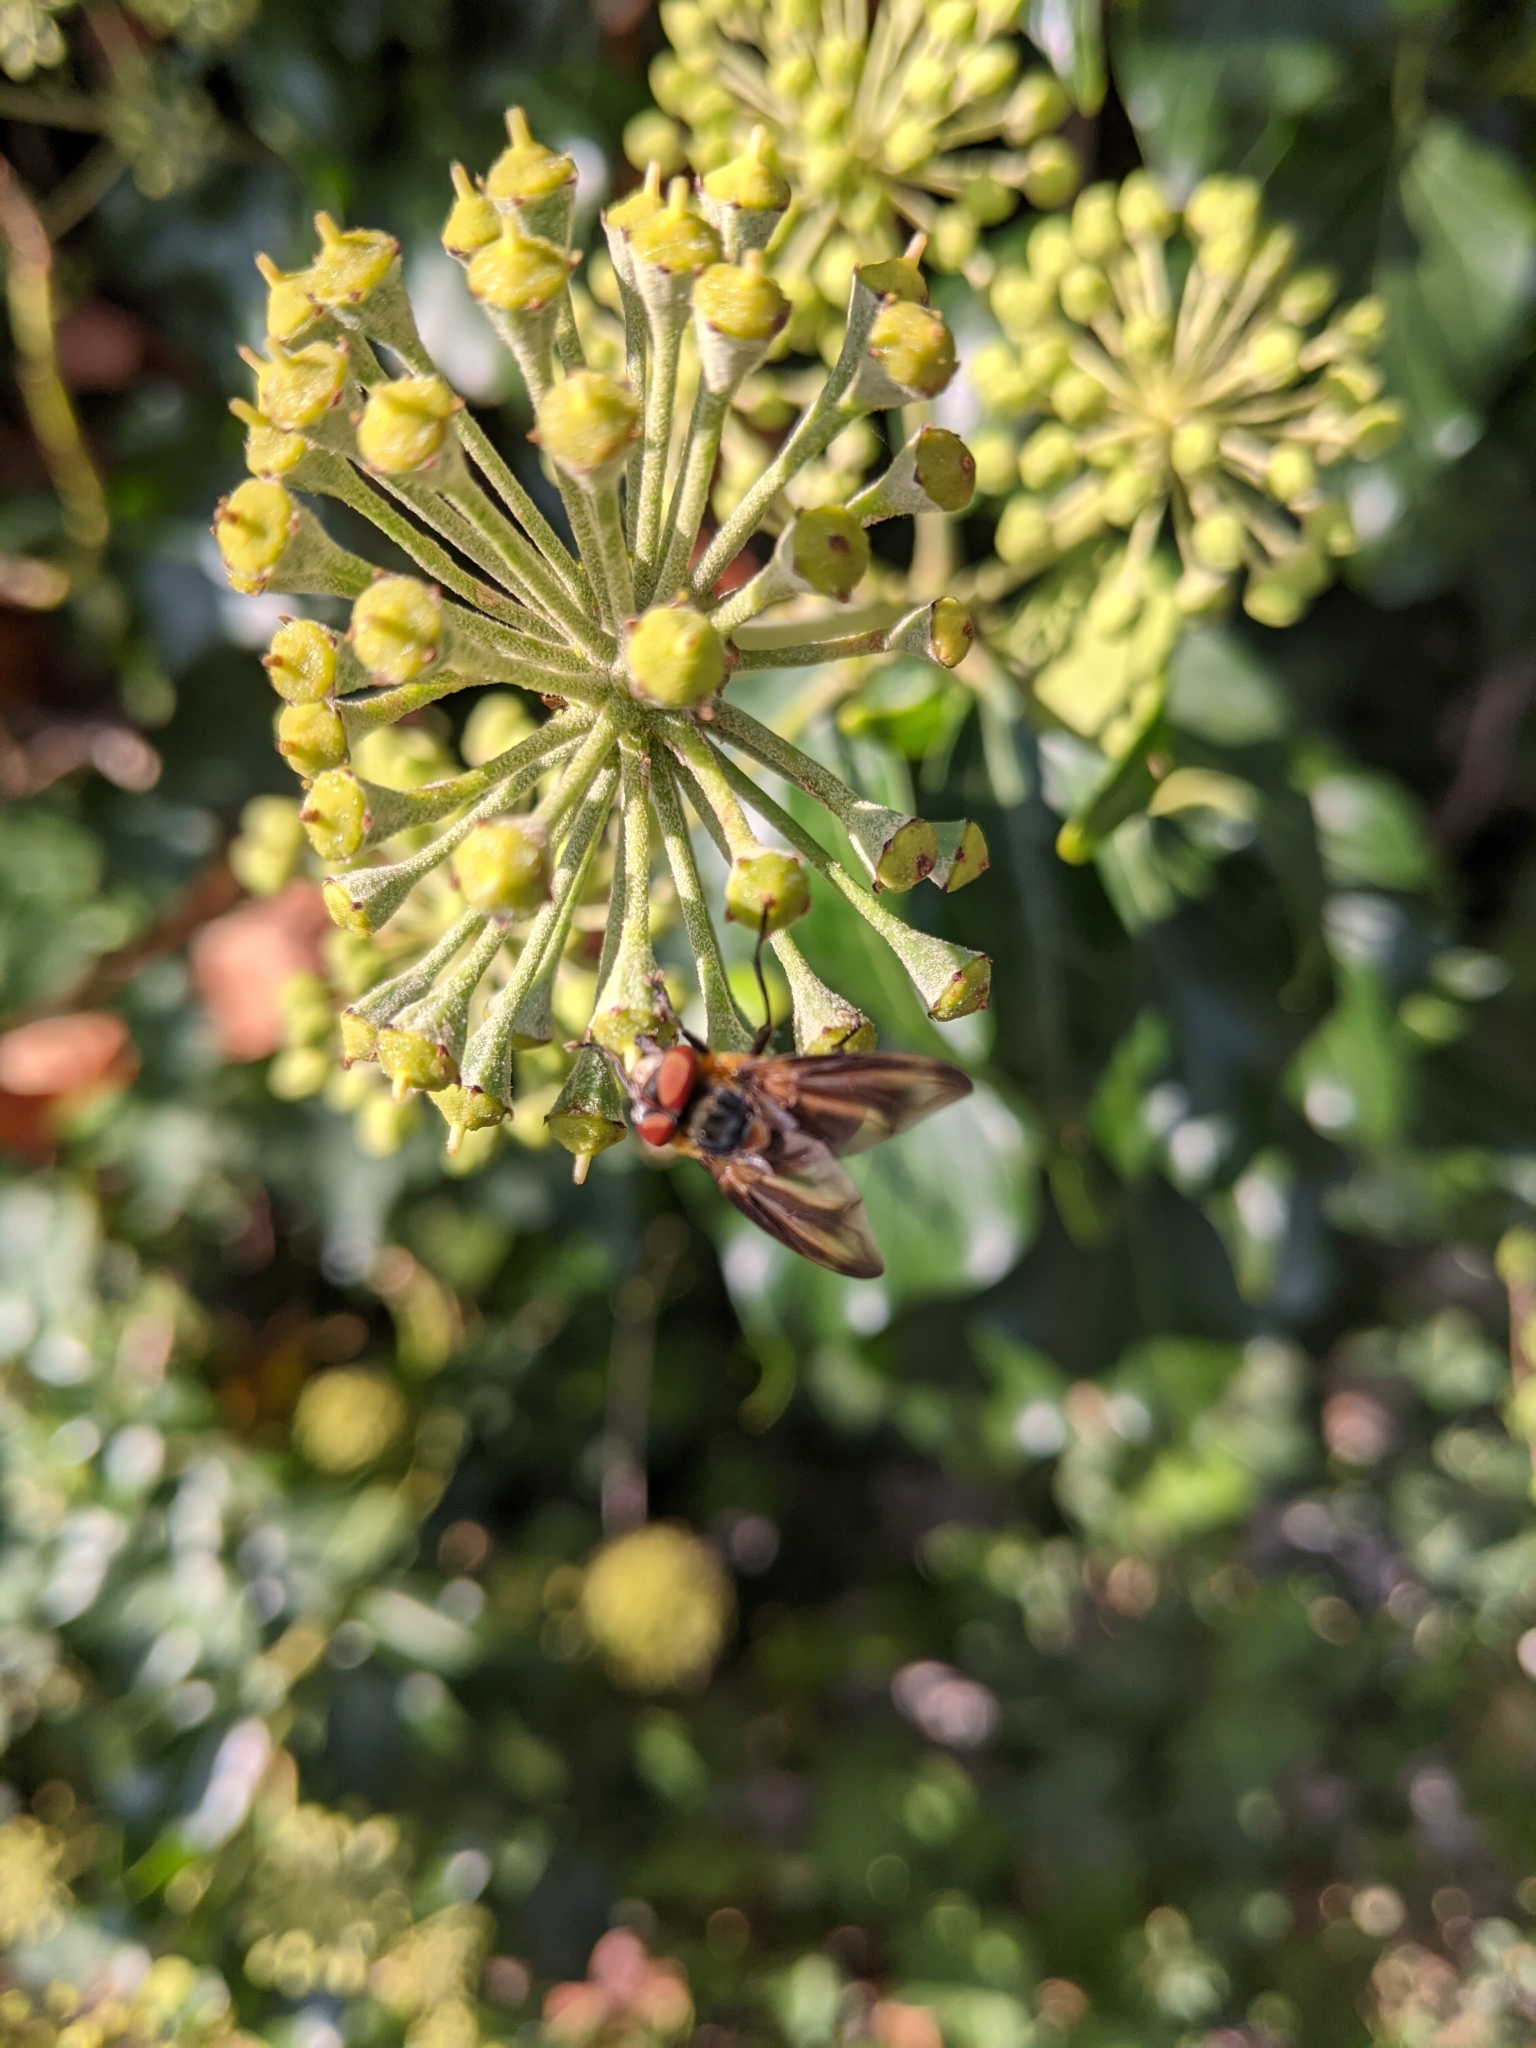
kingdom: Animalia
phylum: Arthropoda
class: Insecta
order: Diptera
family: Tachinidae
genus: Phasia
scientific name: Phasia hemiptera
